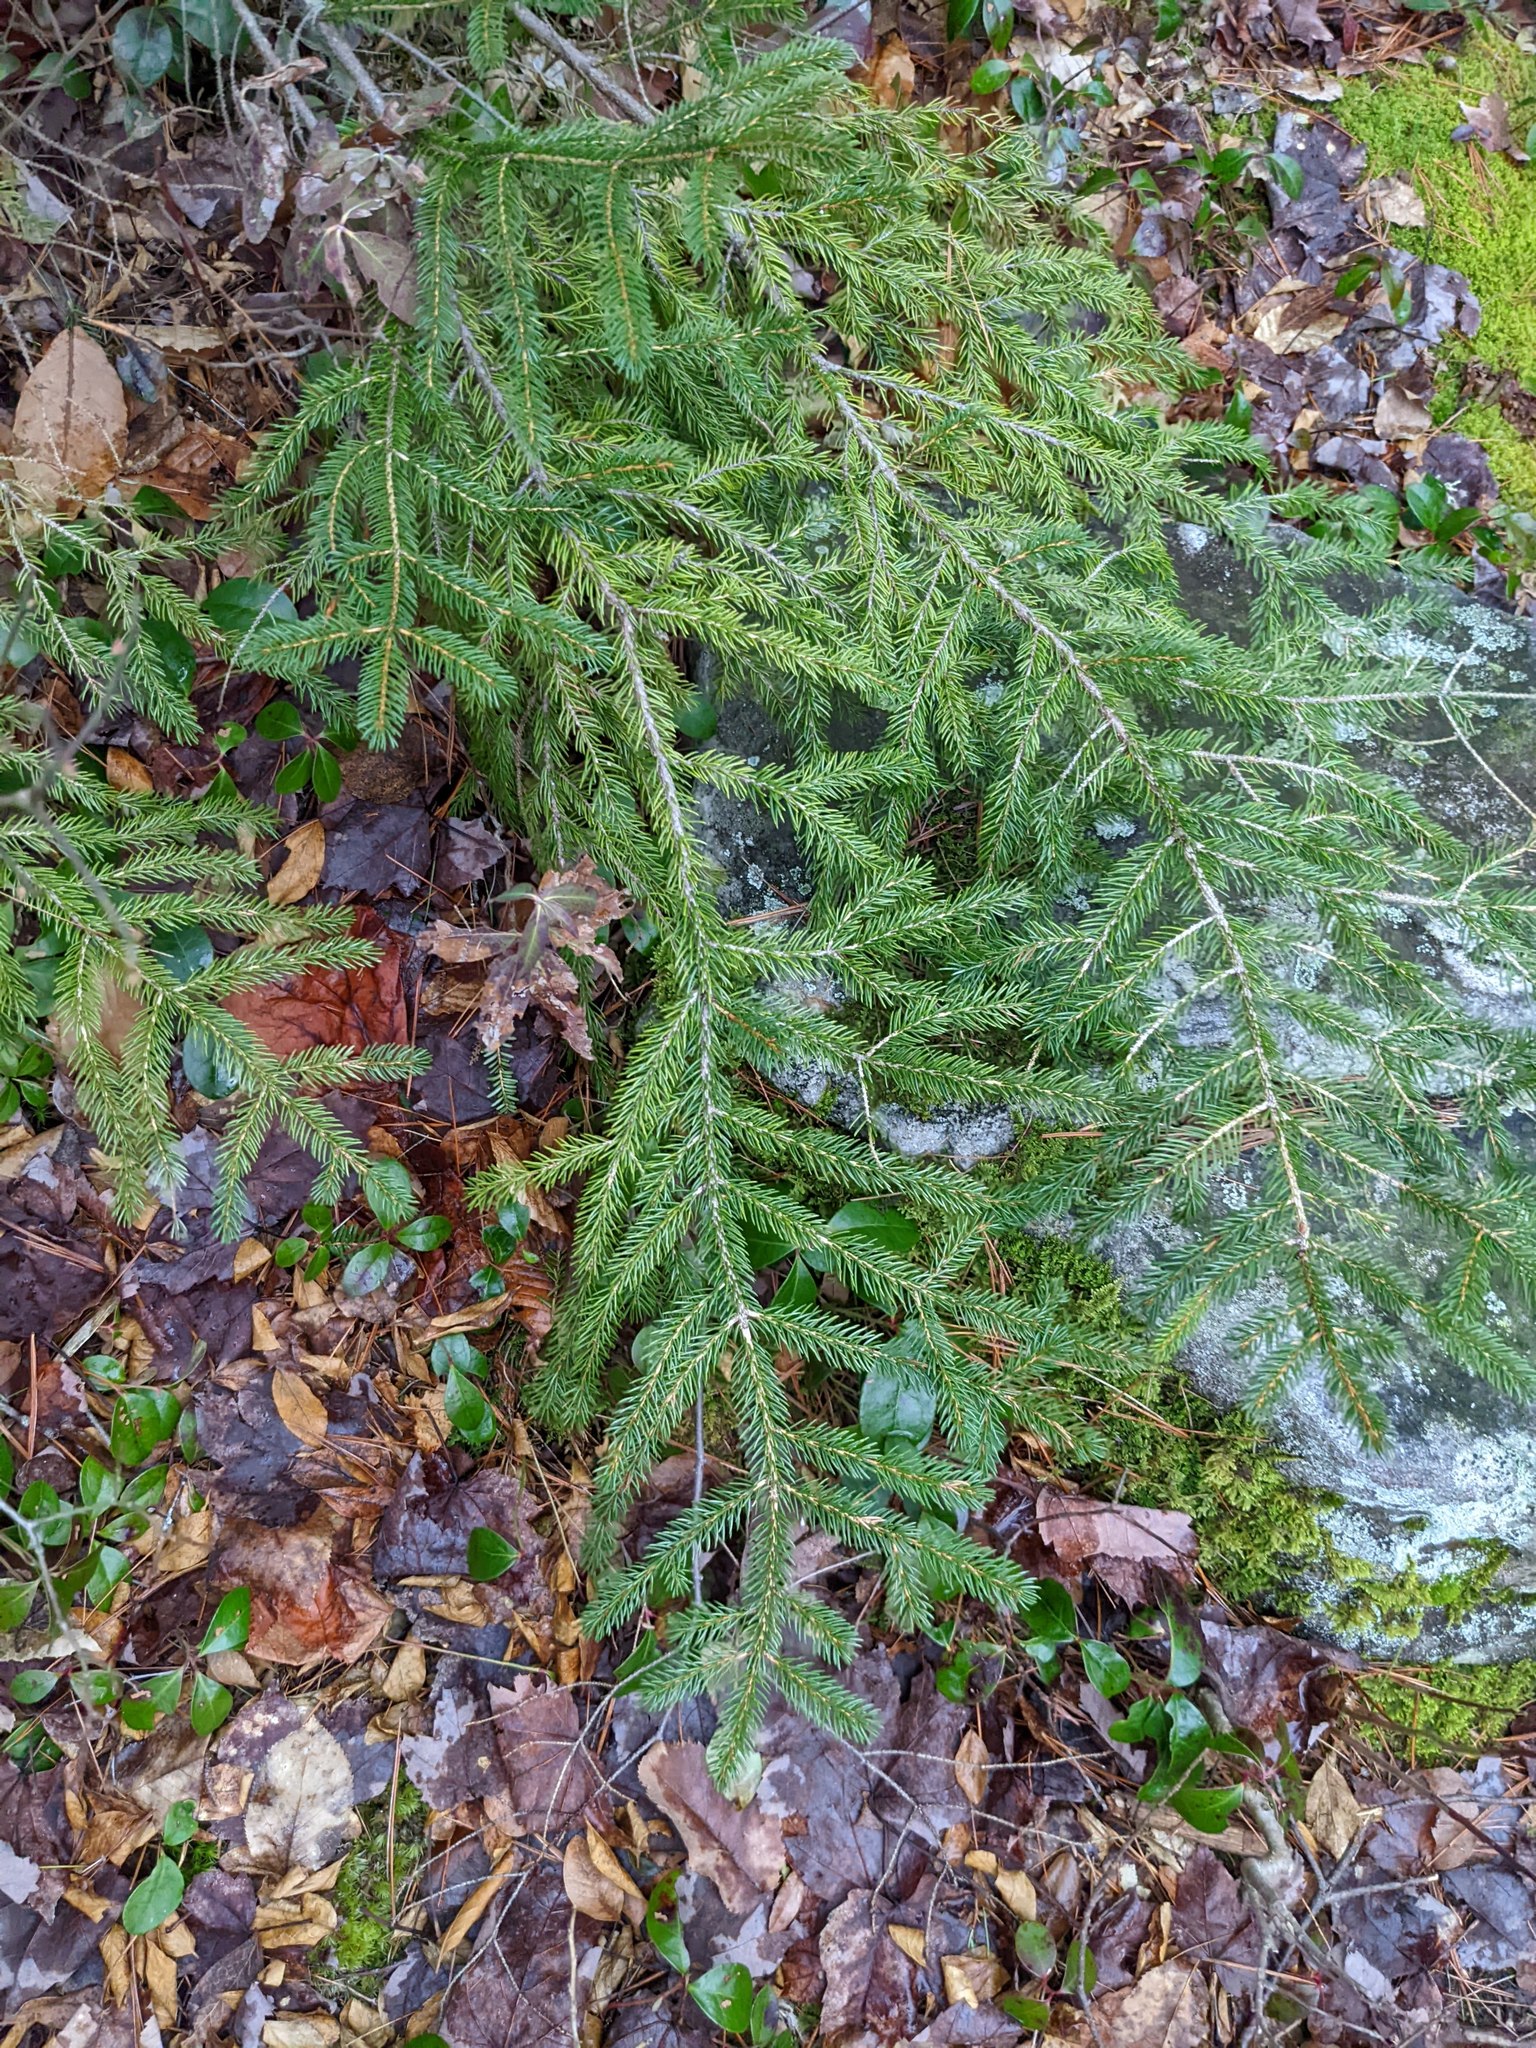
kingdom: Plantae
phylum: Tracheophyta
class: Pinopsida
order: Pinales
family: Pinaceae
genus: Picea
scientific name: Picea rubens
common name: Red spruce
